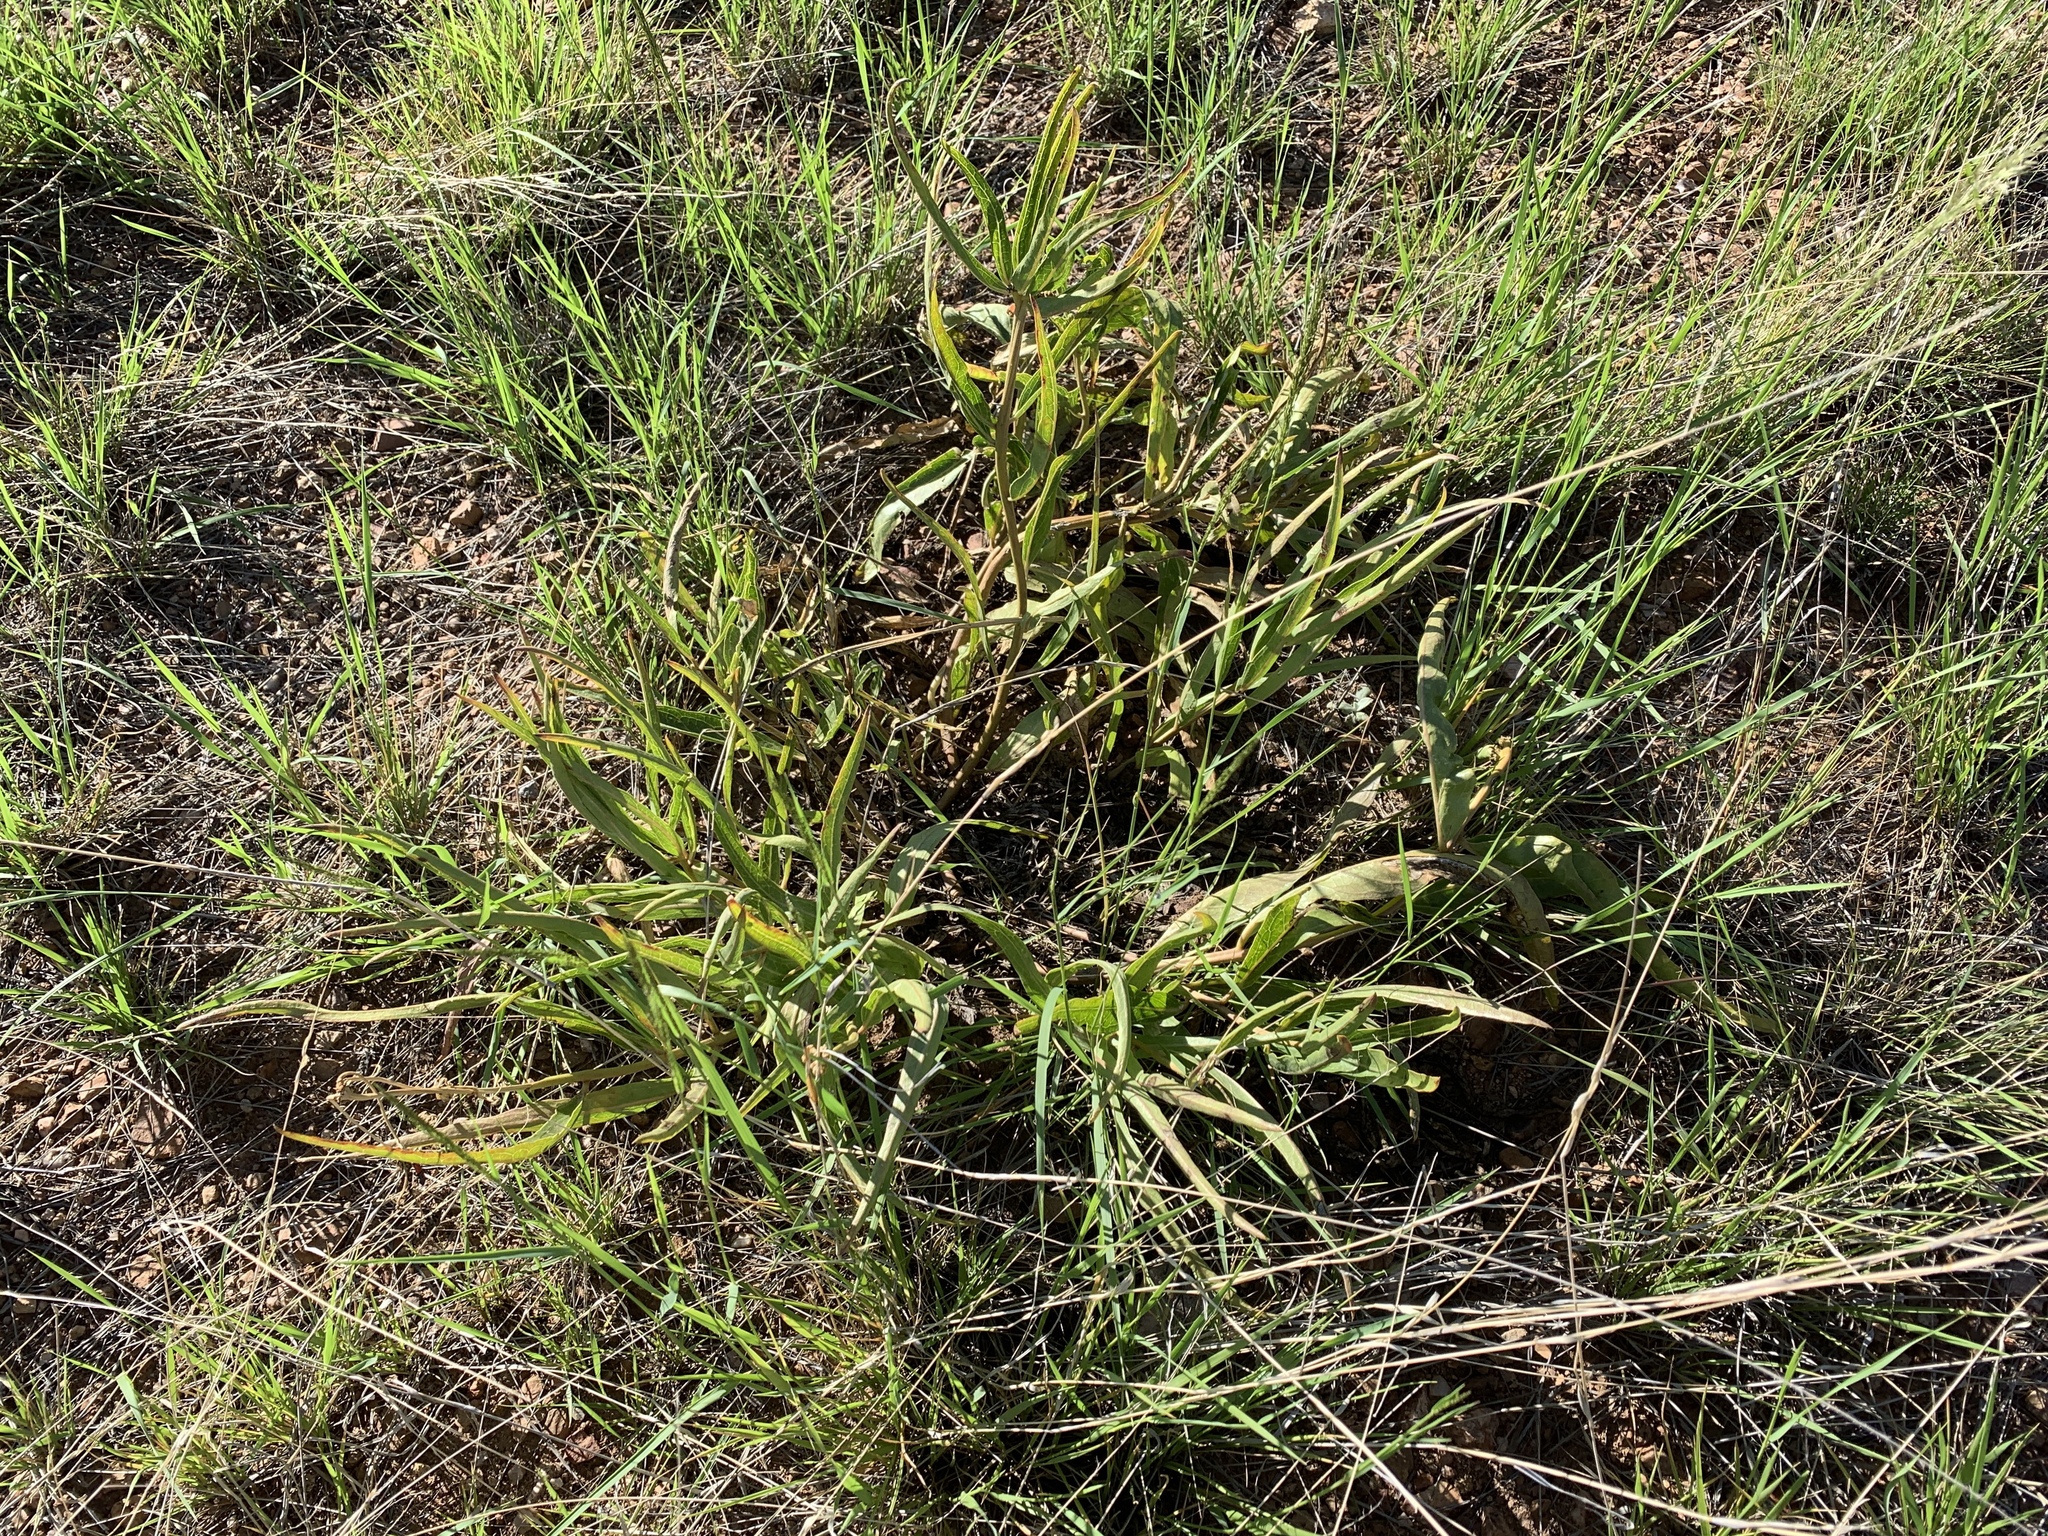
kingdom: Plantae
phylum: Tracheophyta
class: Magnoliopsida
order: Gentianales
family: Apocynaceae
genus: Asclepias
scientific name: Asclepias asperula
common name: Antelope horns
